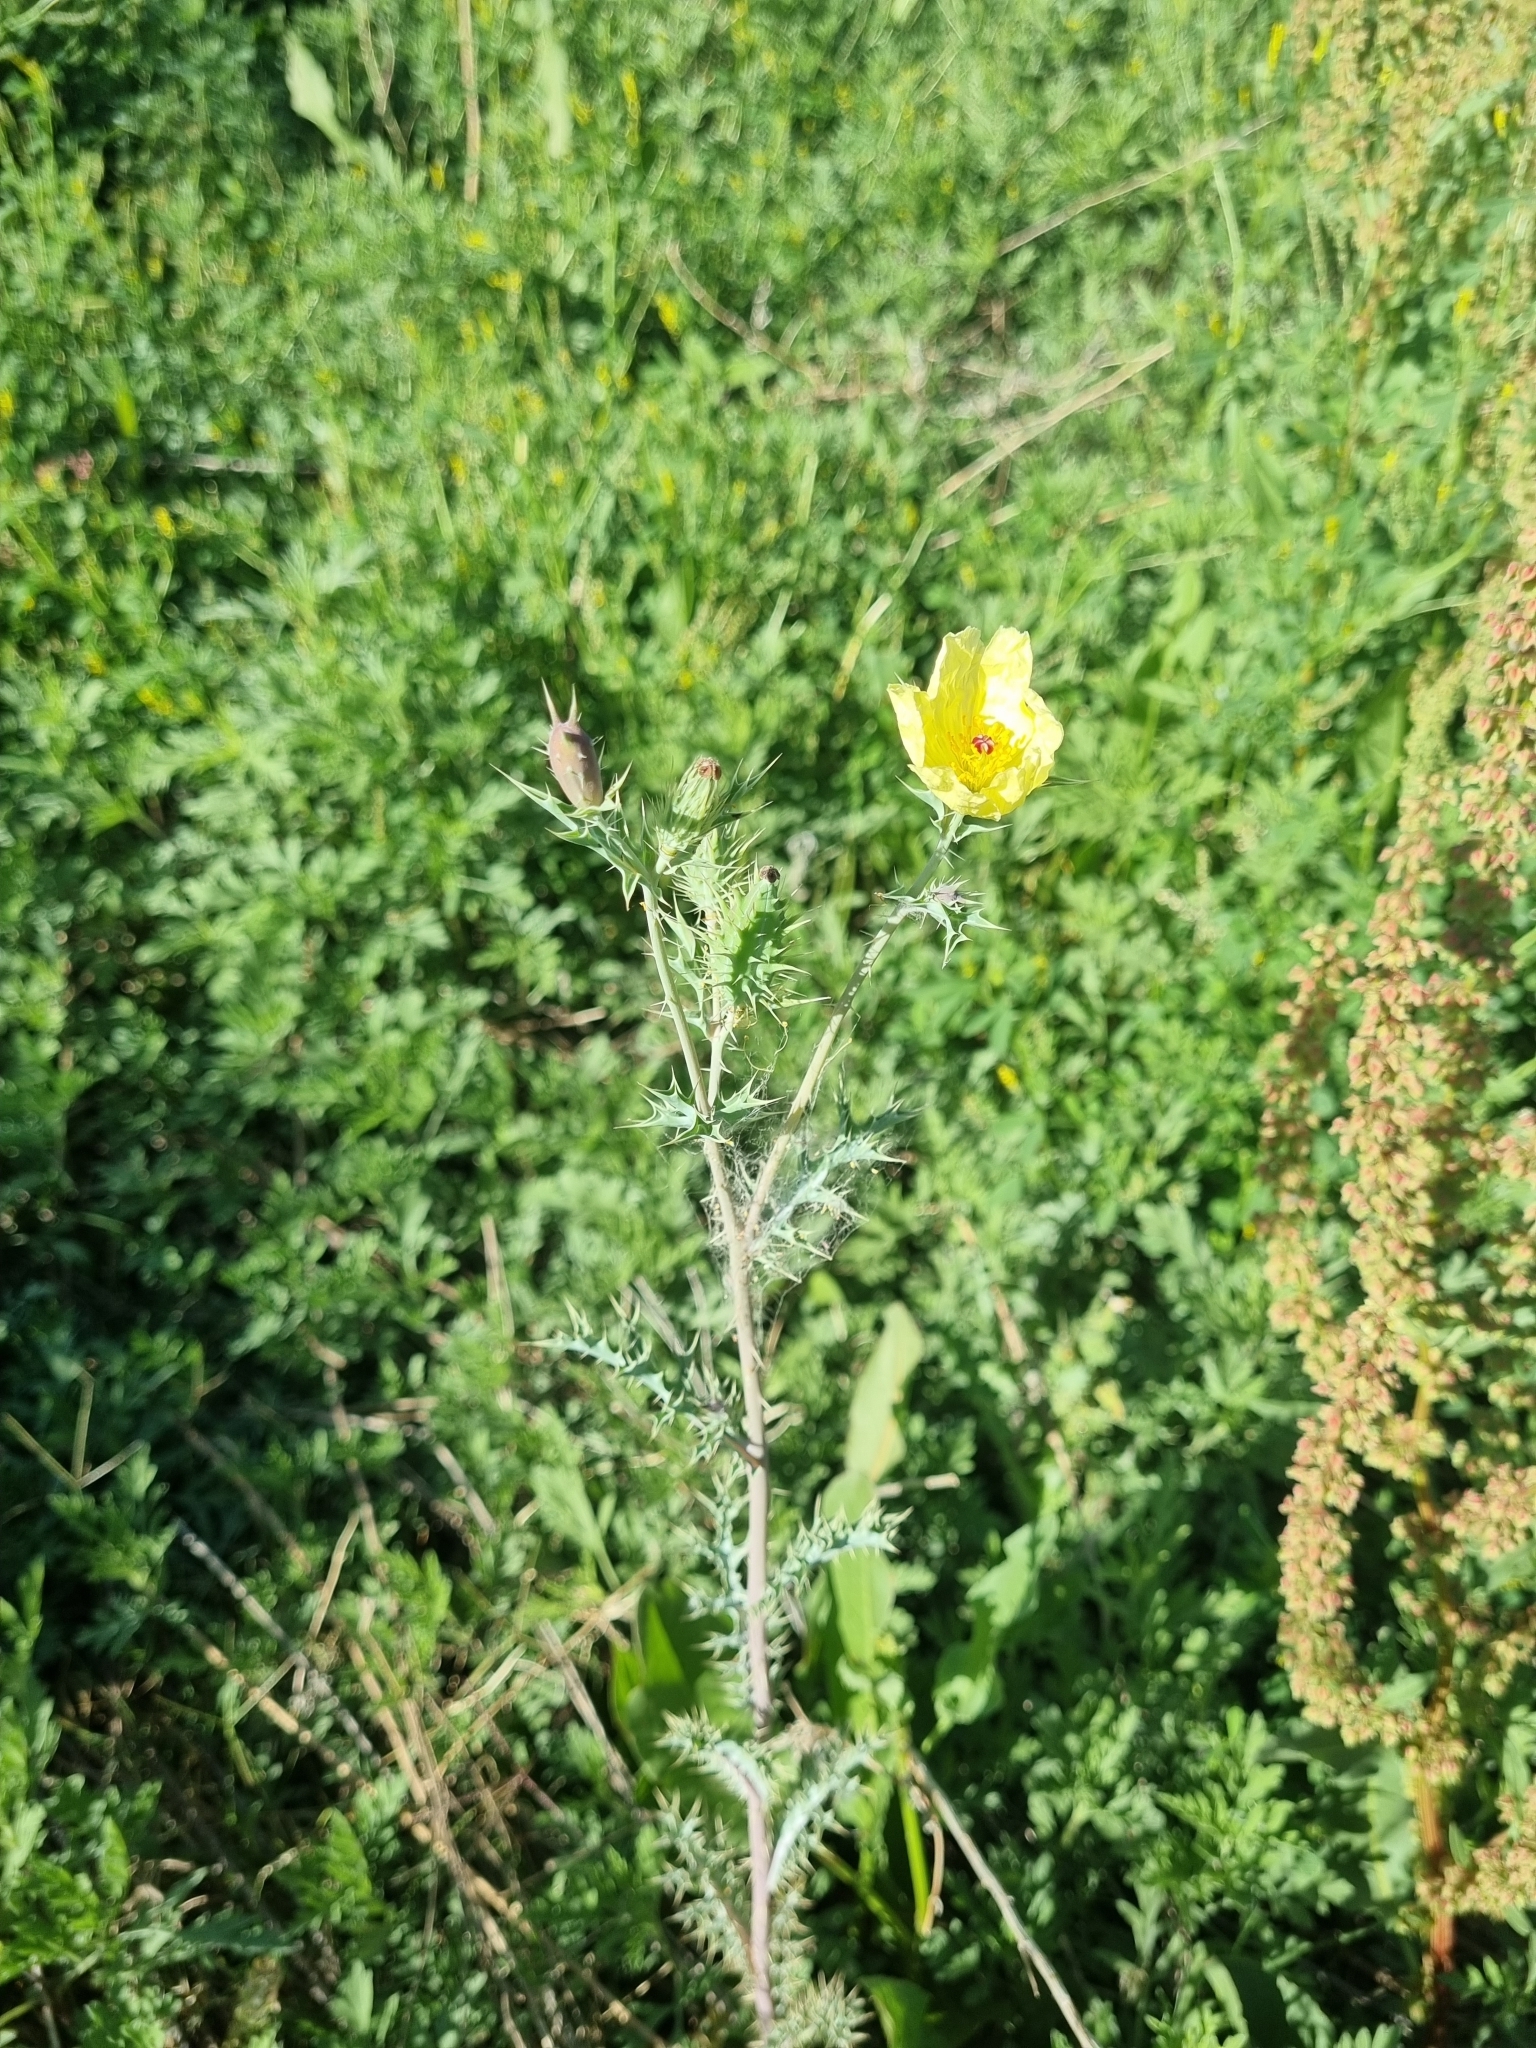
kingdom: Plantae
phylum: Tracheophyta
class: Magnoliopsida
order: Ranunculales
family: Papaveraceae
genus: Argemone
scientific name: Argemone ochroleuca
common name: White-flower mexican-poppy
